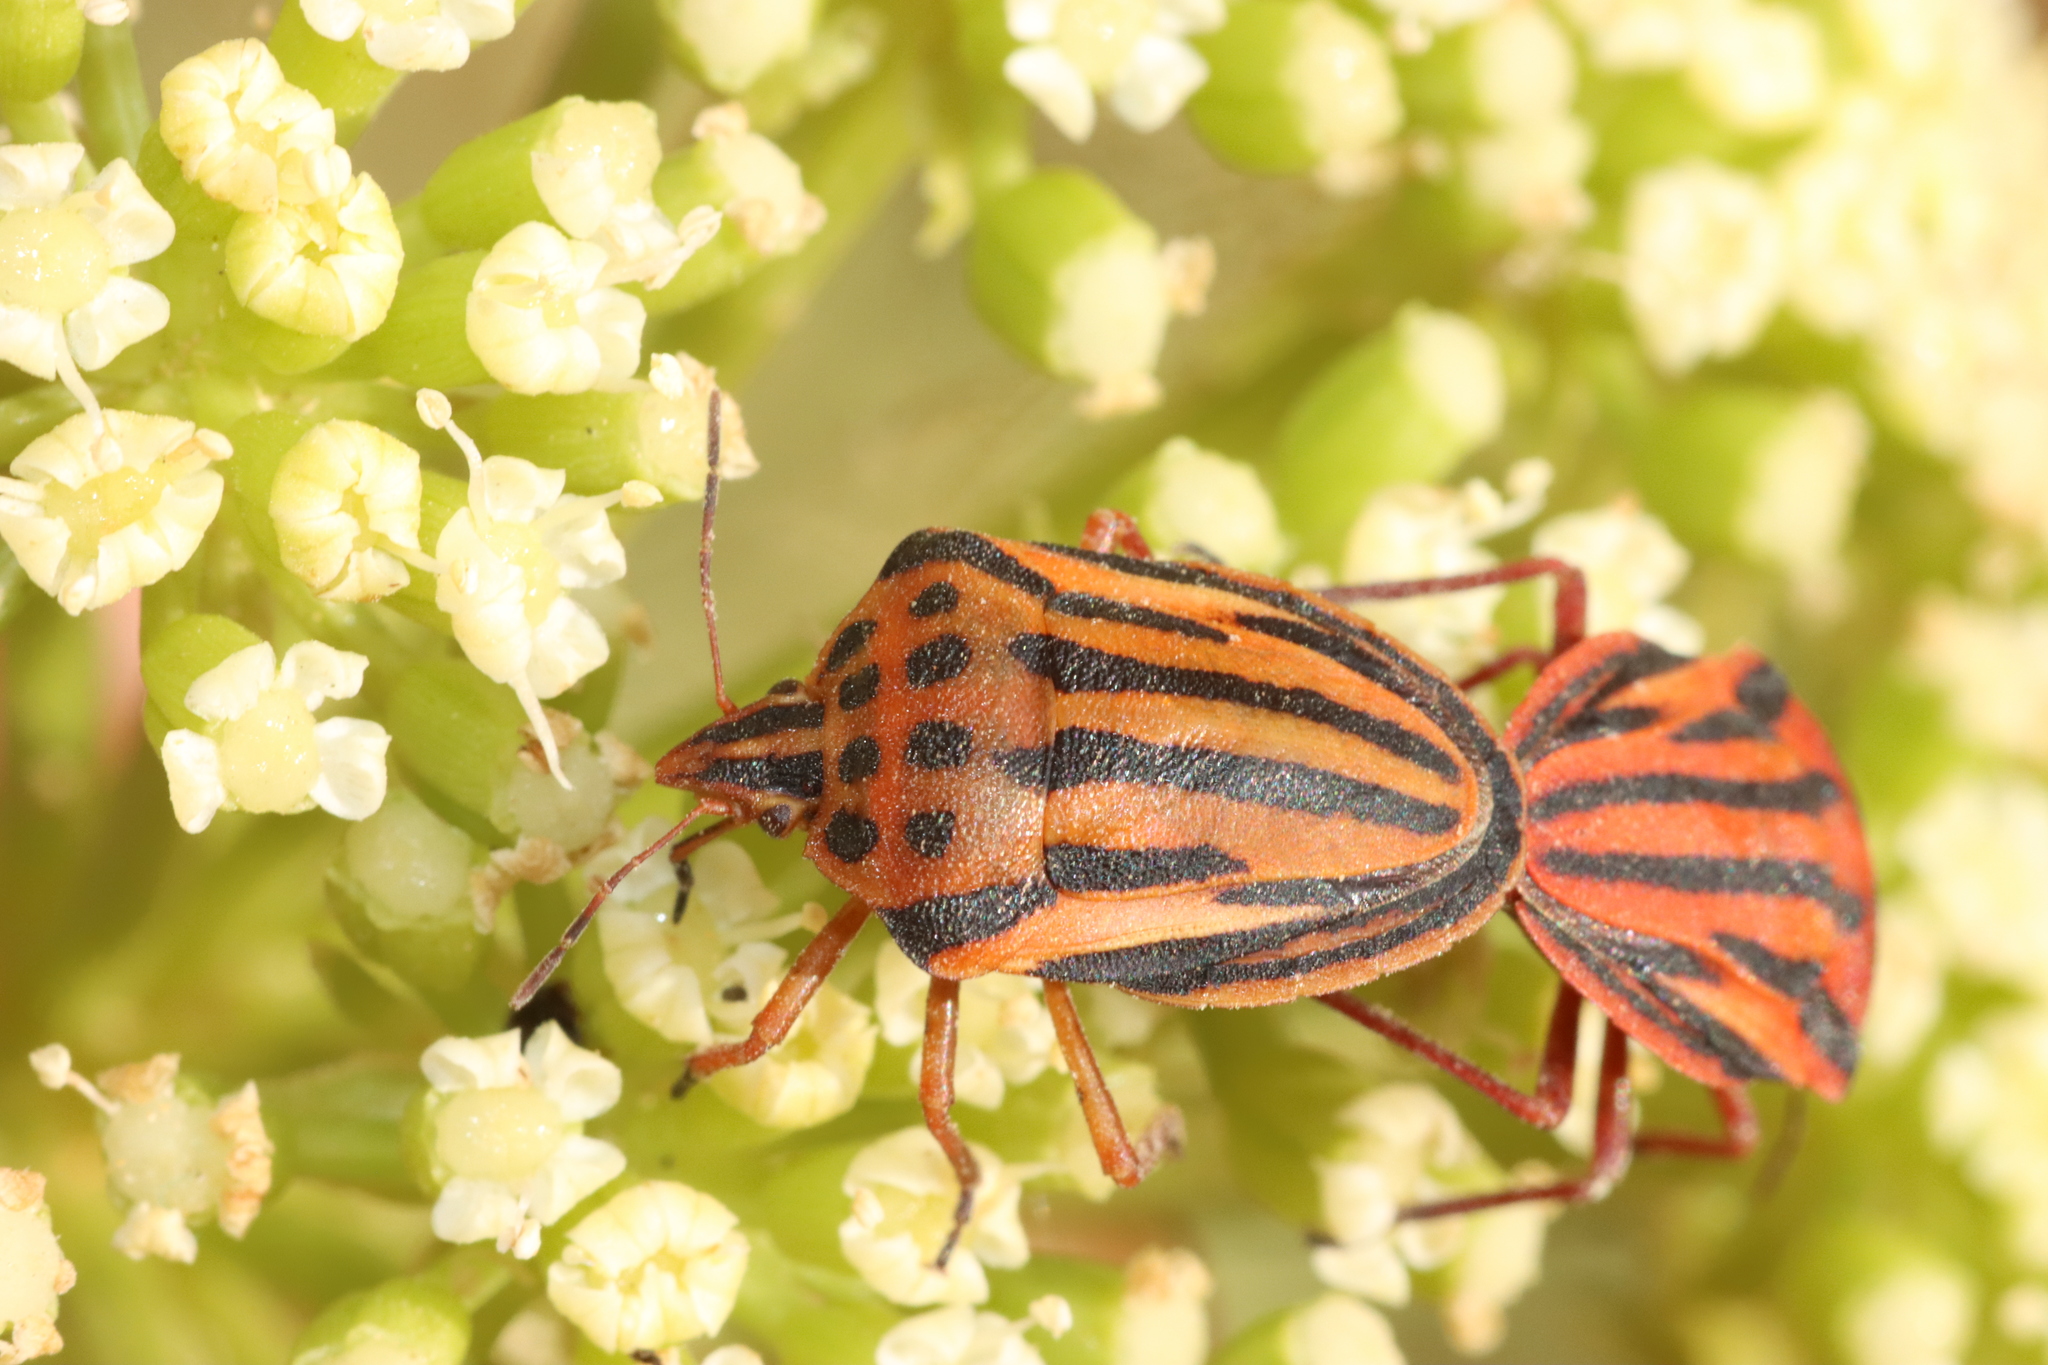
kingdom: Animalia
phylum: Arthropoda
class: Insecta
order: Hemiptera
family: Pentatomidae
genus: Graphosoma
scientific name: Graphosoma semipunctatum
